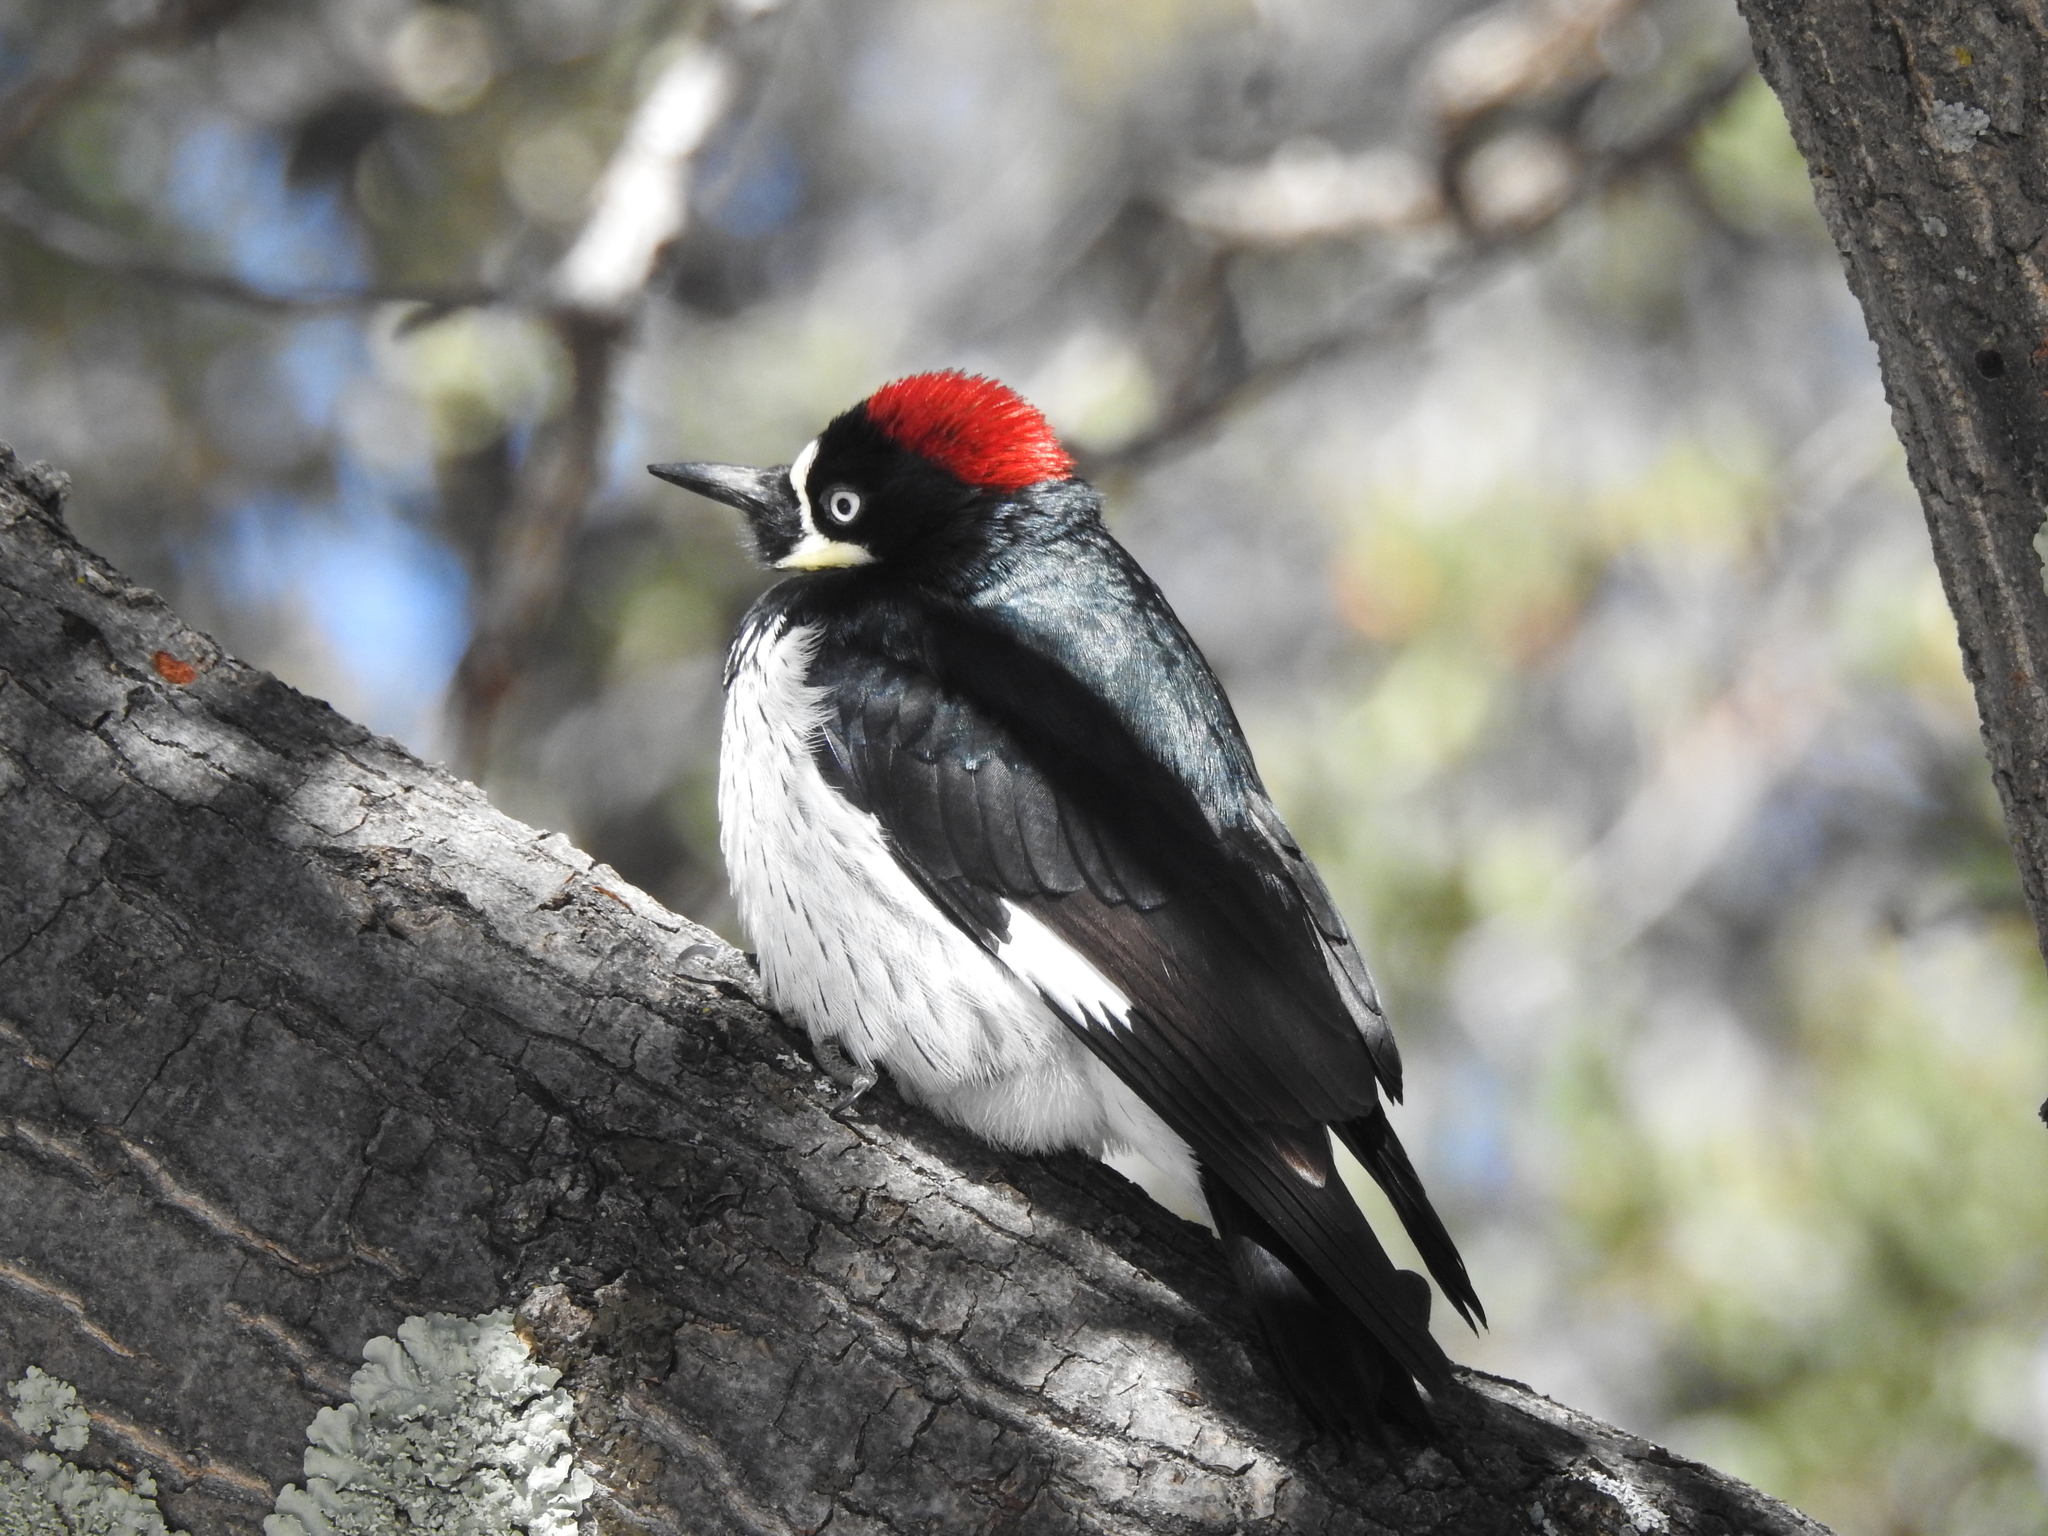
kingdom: Animalia
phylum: Chordata
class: Aves
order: Piciformes
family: Picidae
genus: Melanerpes
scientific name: Melanerpes formicivorus
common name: Acorn woodpecker
